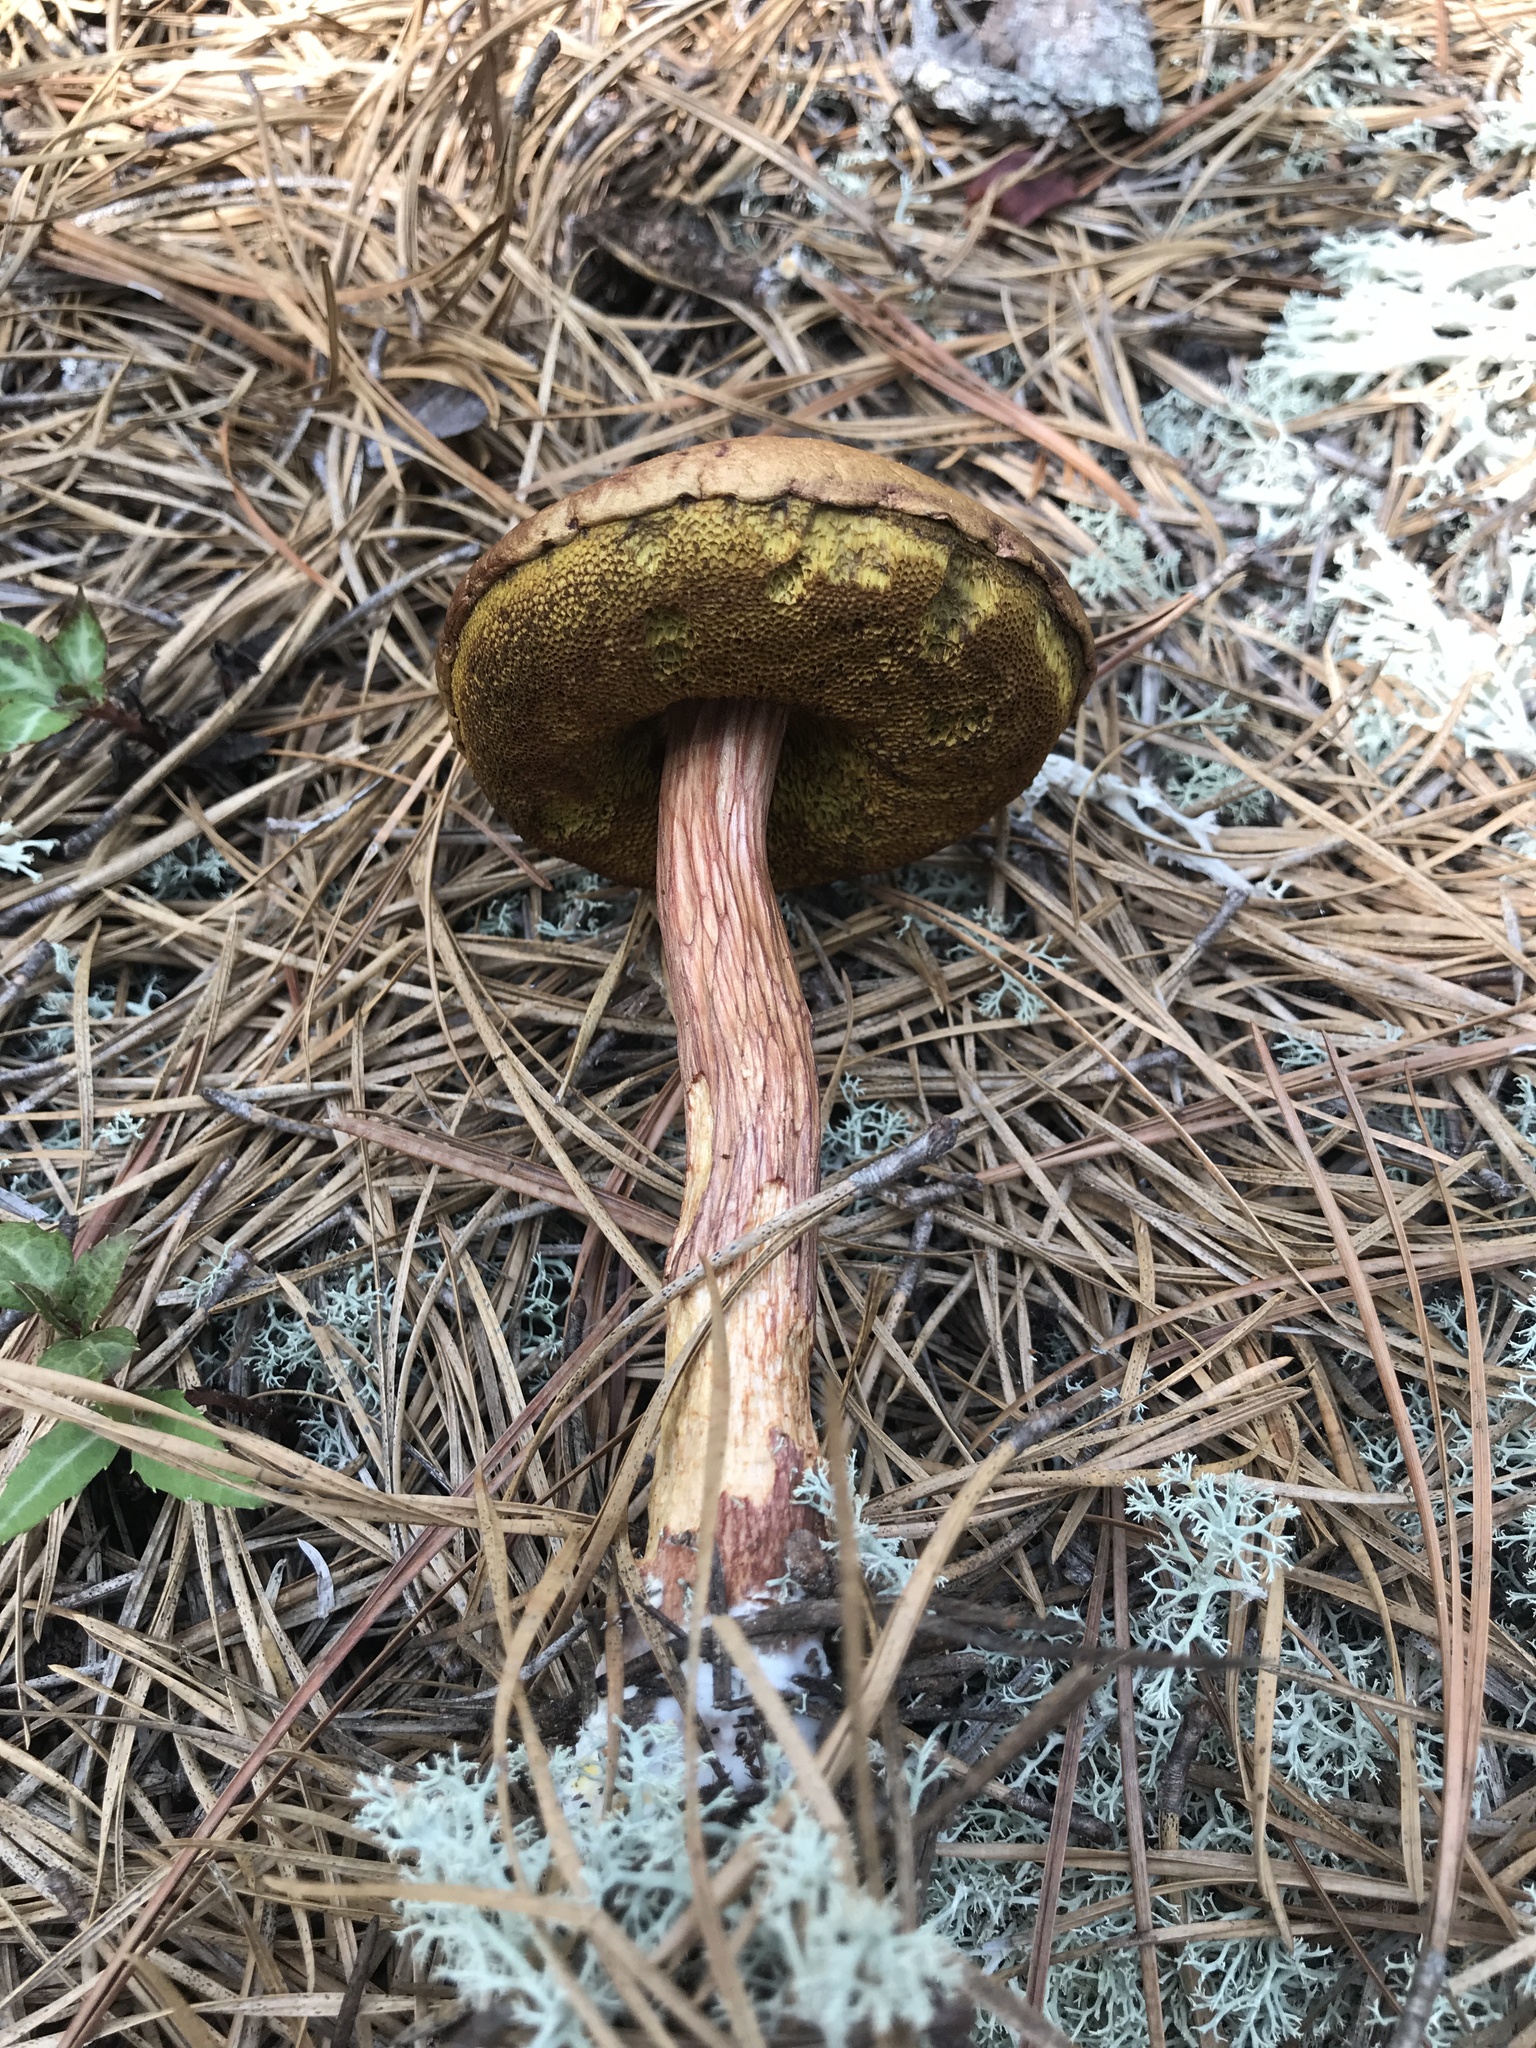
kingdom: Fungi
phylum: Basidiomycota
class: Agaricomycetes
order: Boletales
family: Boletaceae
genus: Aureoboletus
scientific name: Aureoboletus projectellus
